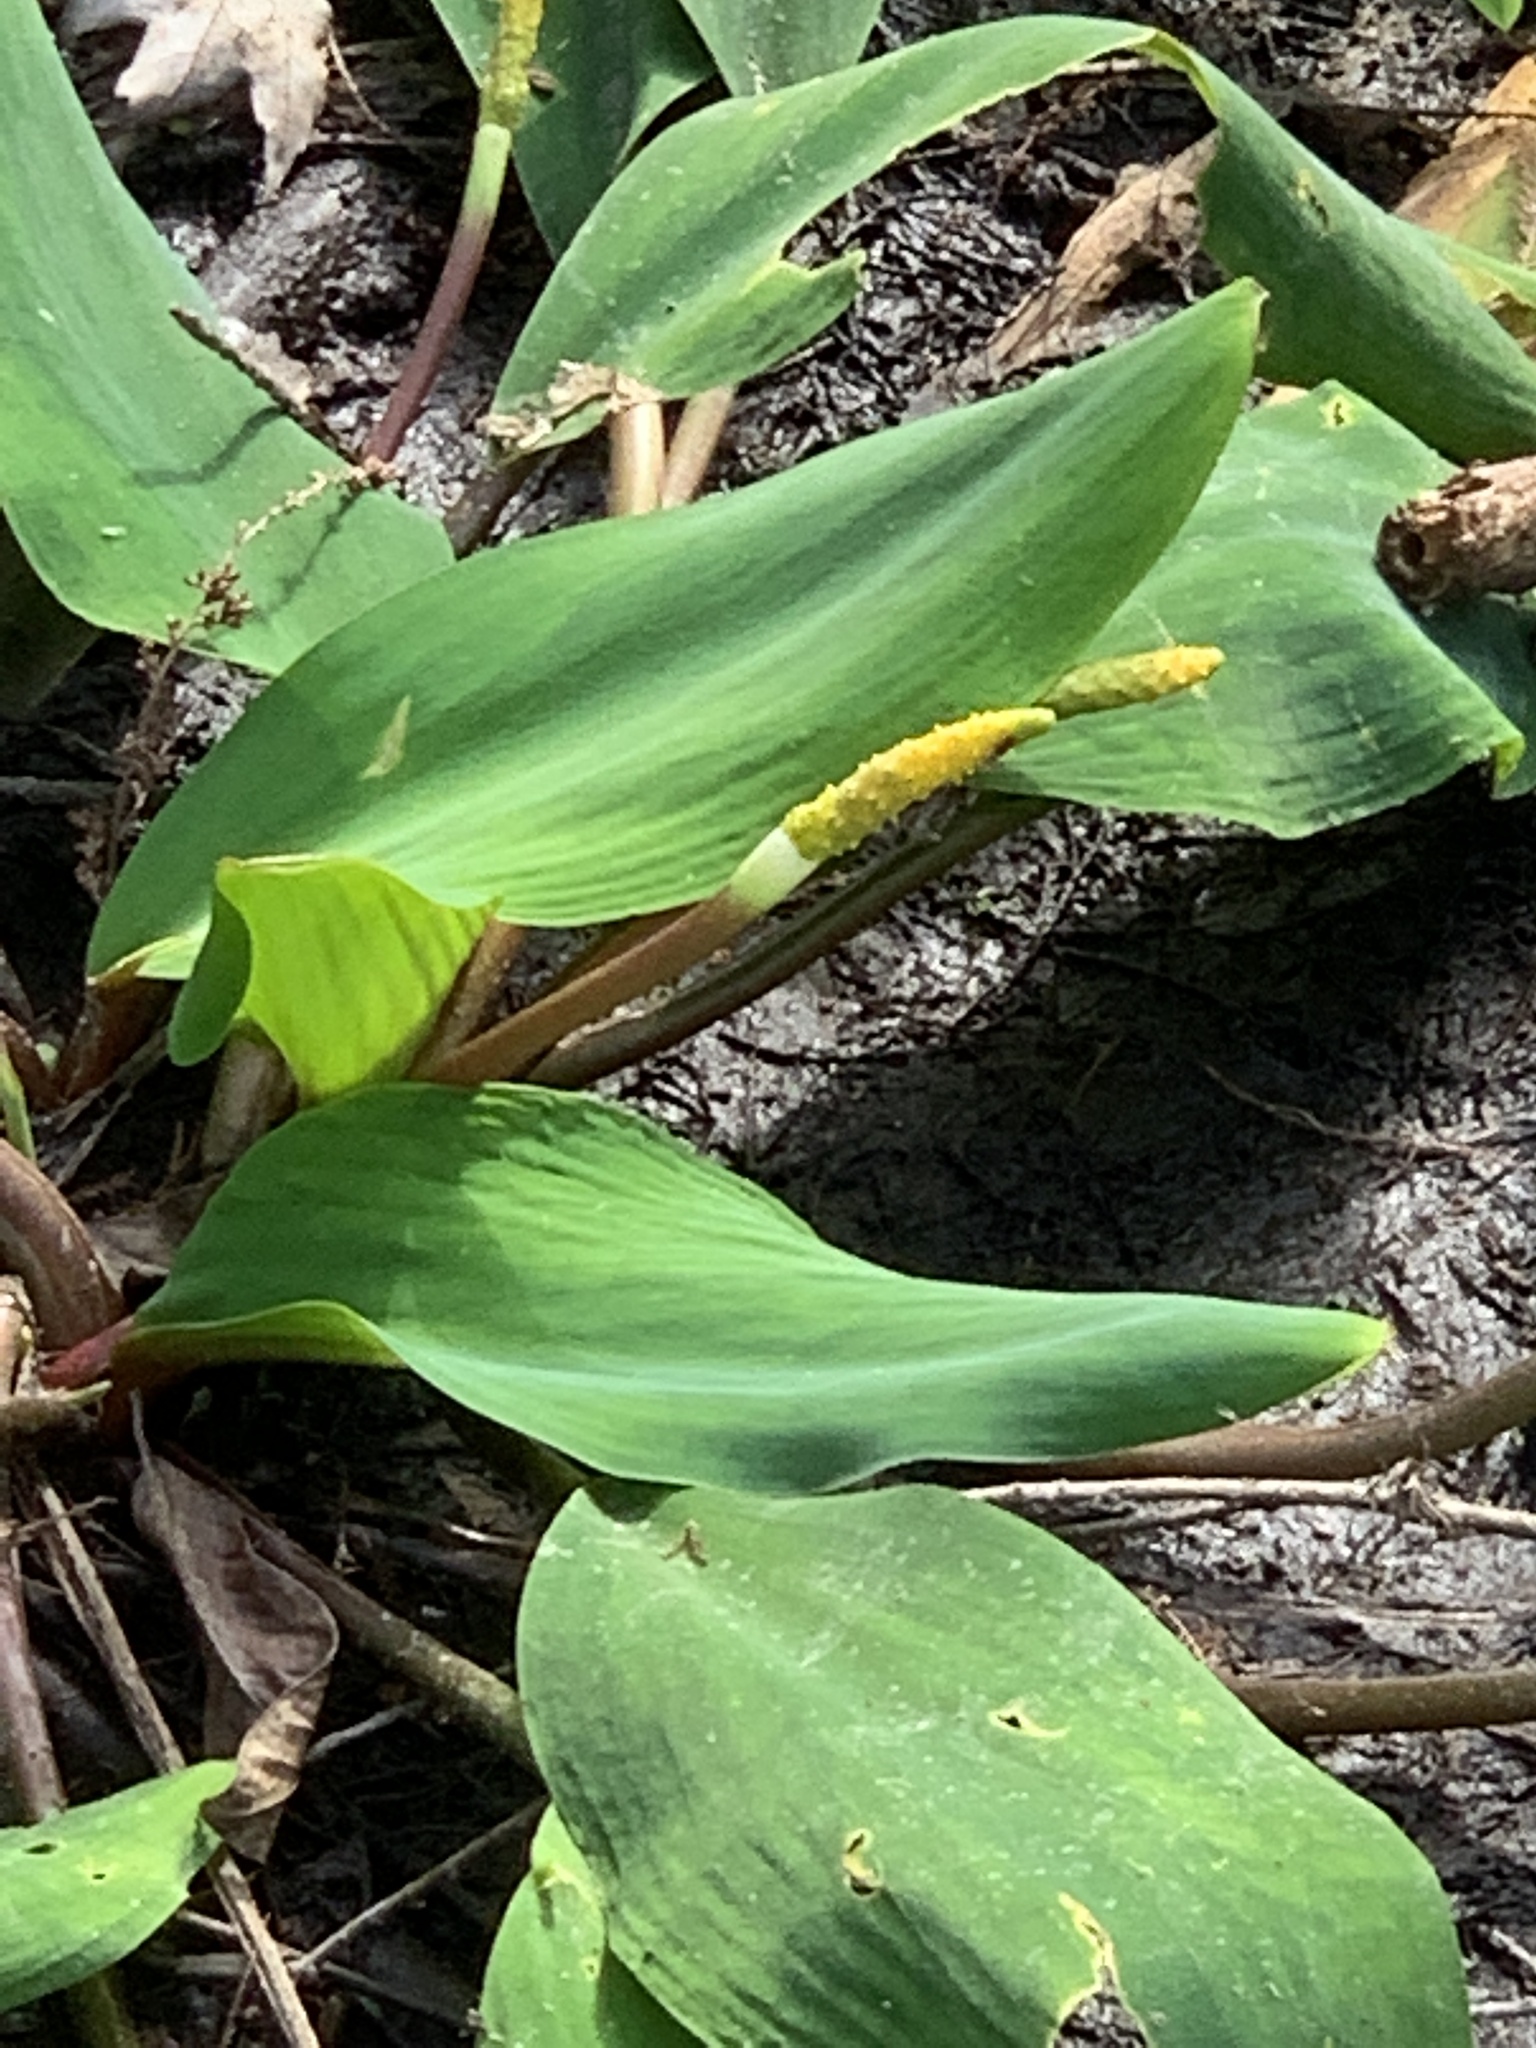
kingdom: Plantae
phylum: Tracheophyta
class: Liliopsida
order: Alismatales
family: Araceae
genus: Orontium
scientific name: Orontium aquaticum
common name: Golden-club
